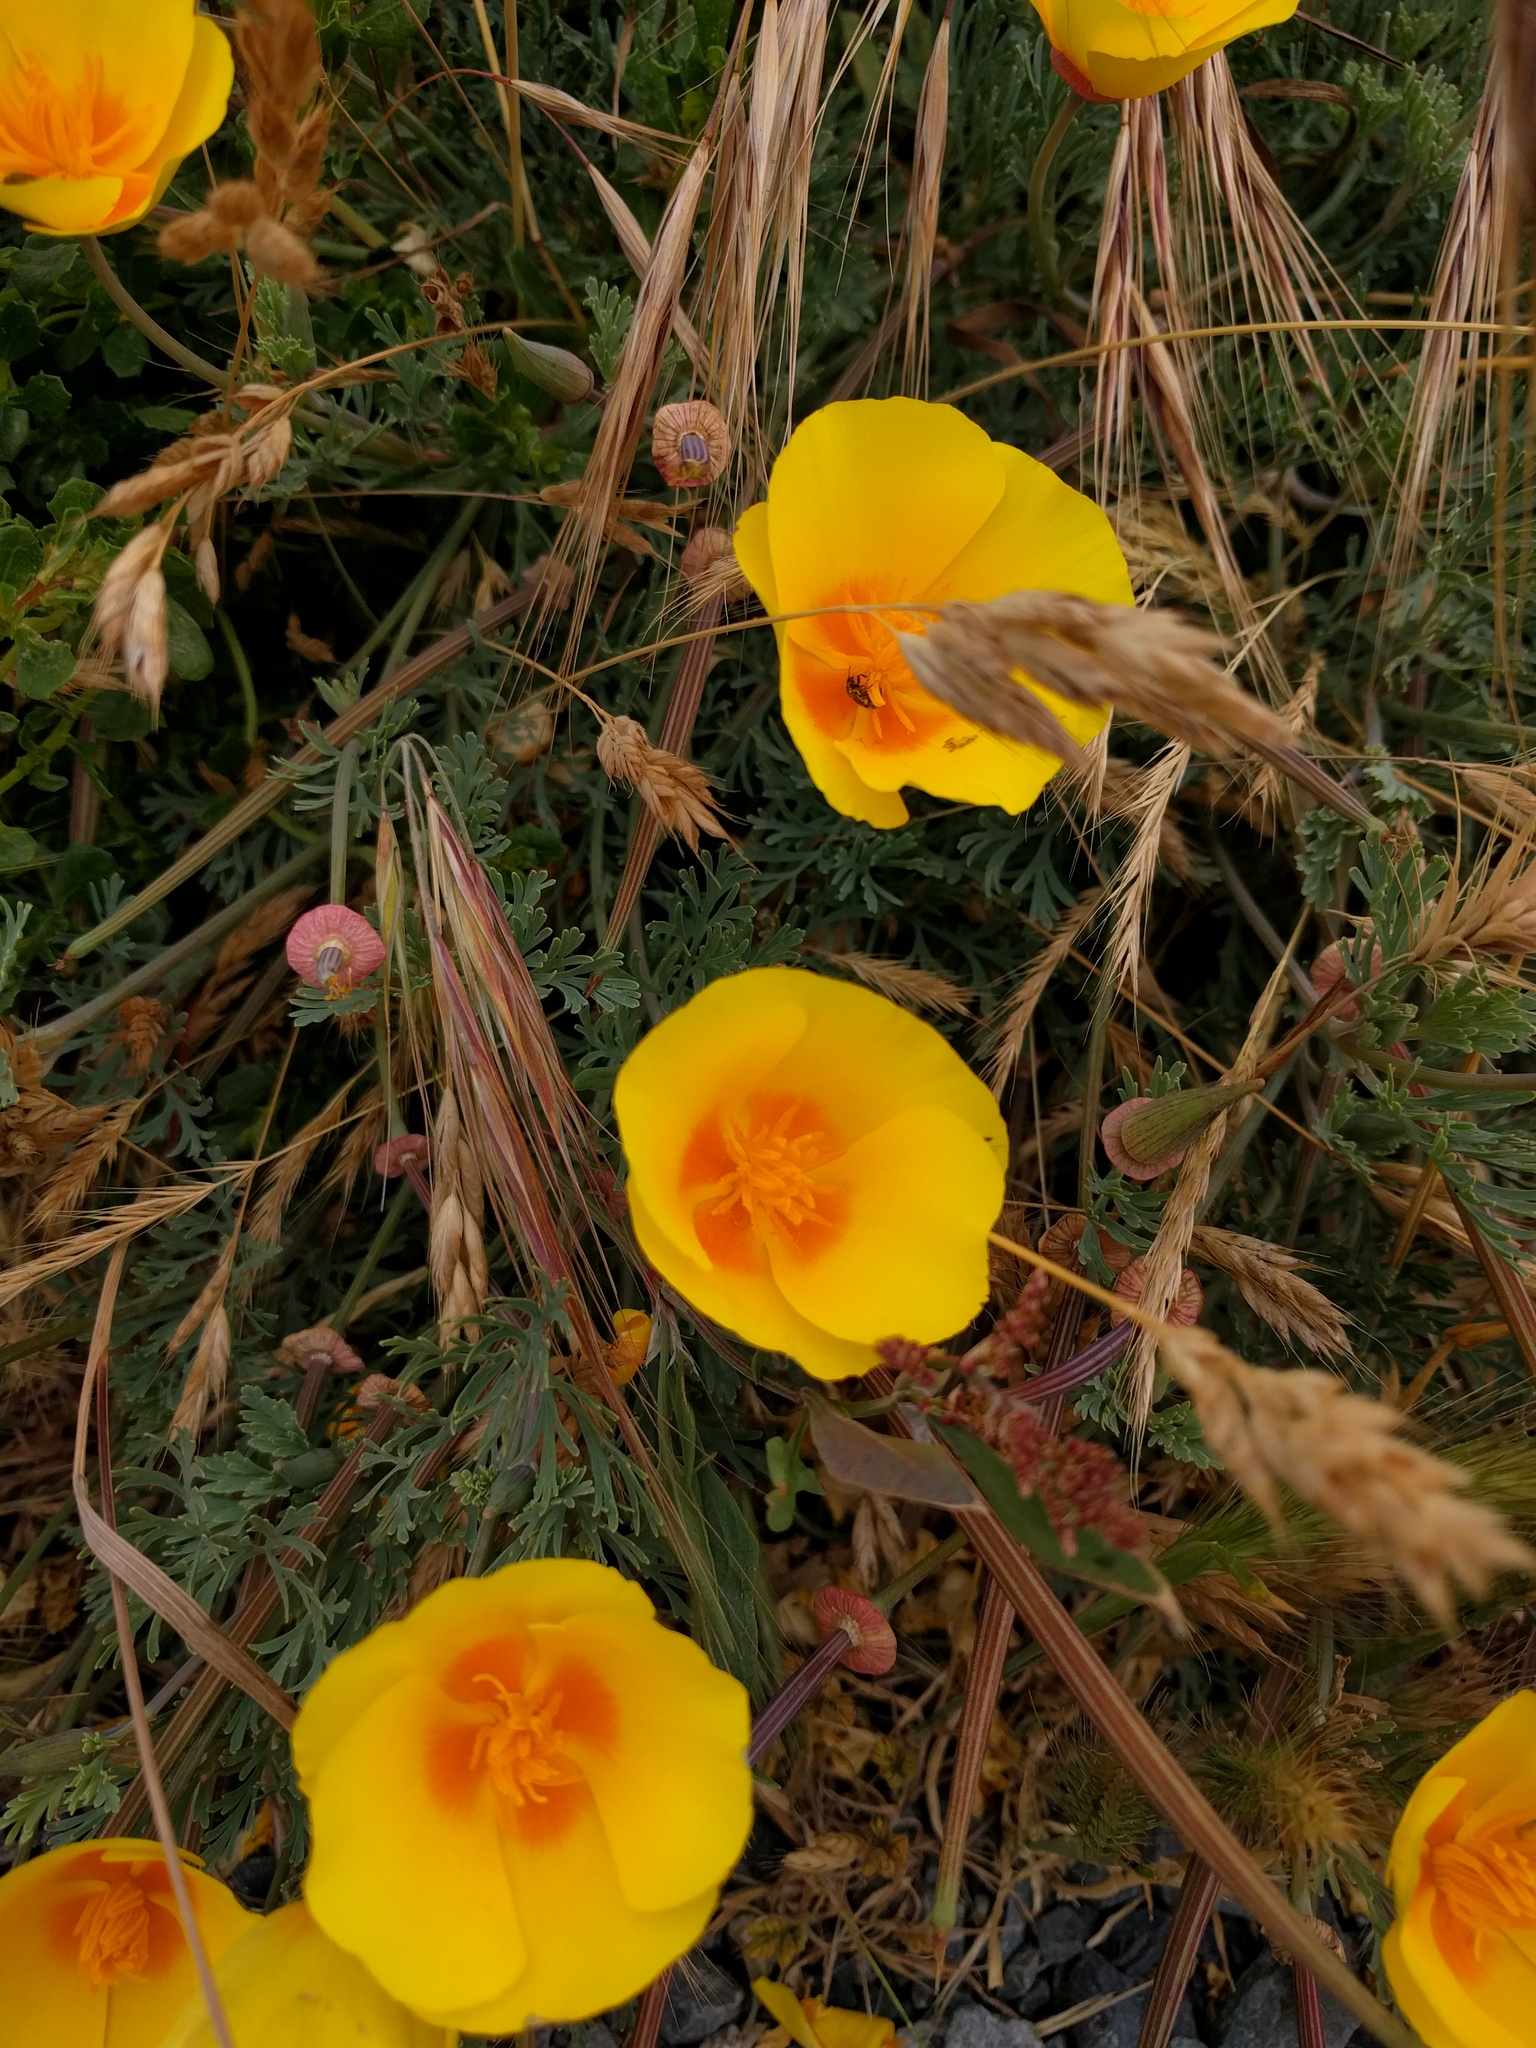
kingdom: Plantae
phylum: Tracheophyta
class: Magnoliopsida
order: Ranunculales
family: Papaveraceae
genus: Eschscholzia
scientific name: Eschscholzia californica
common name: California poppy
